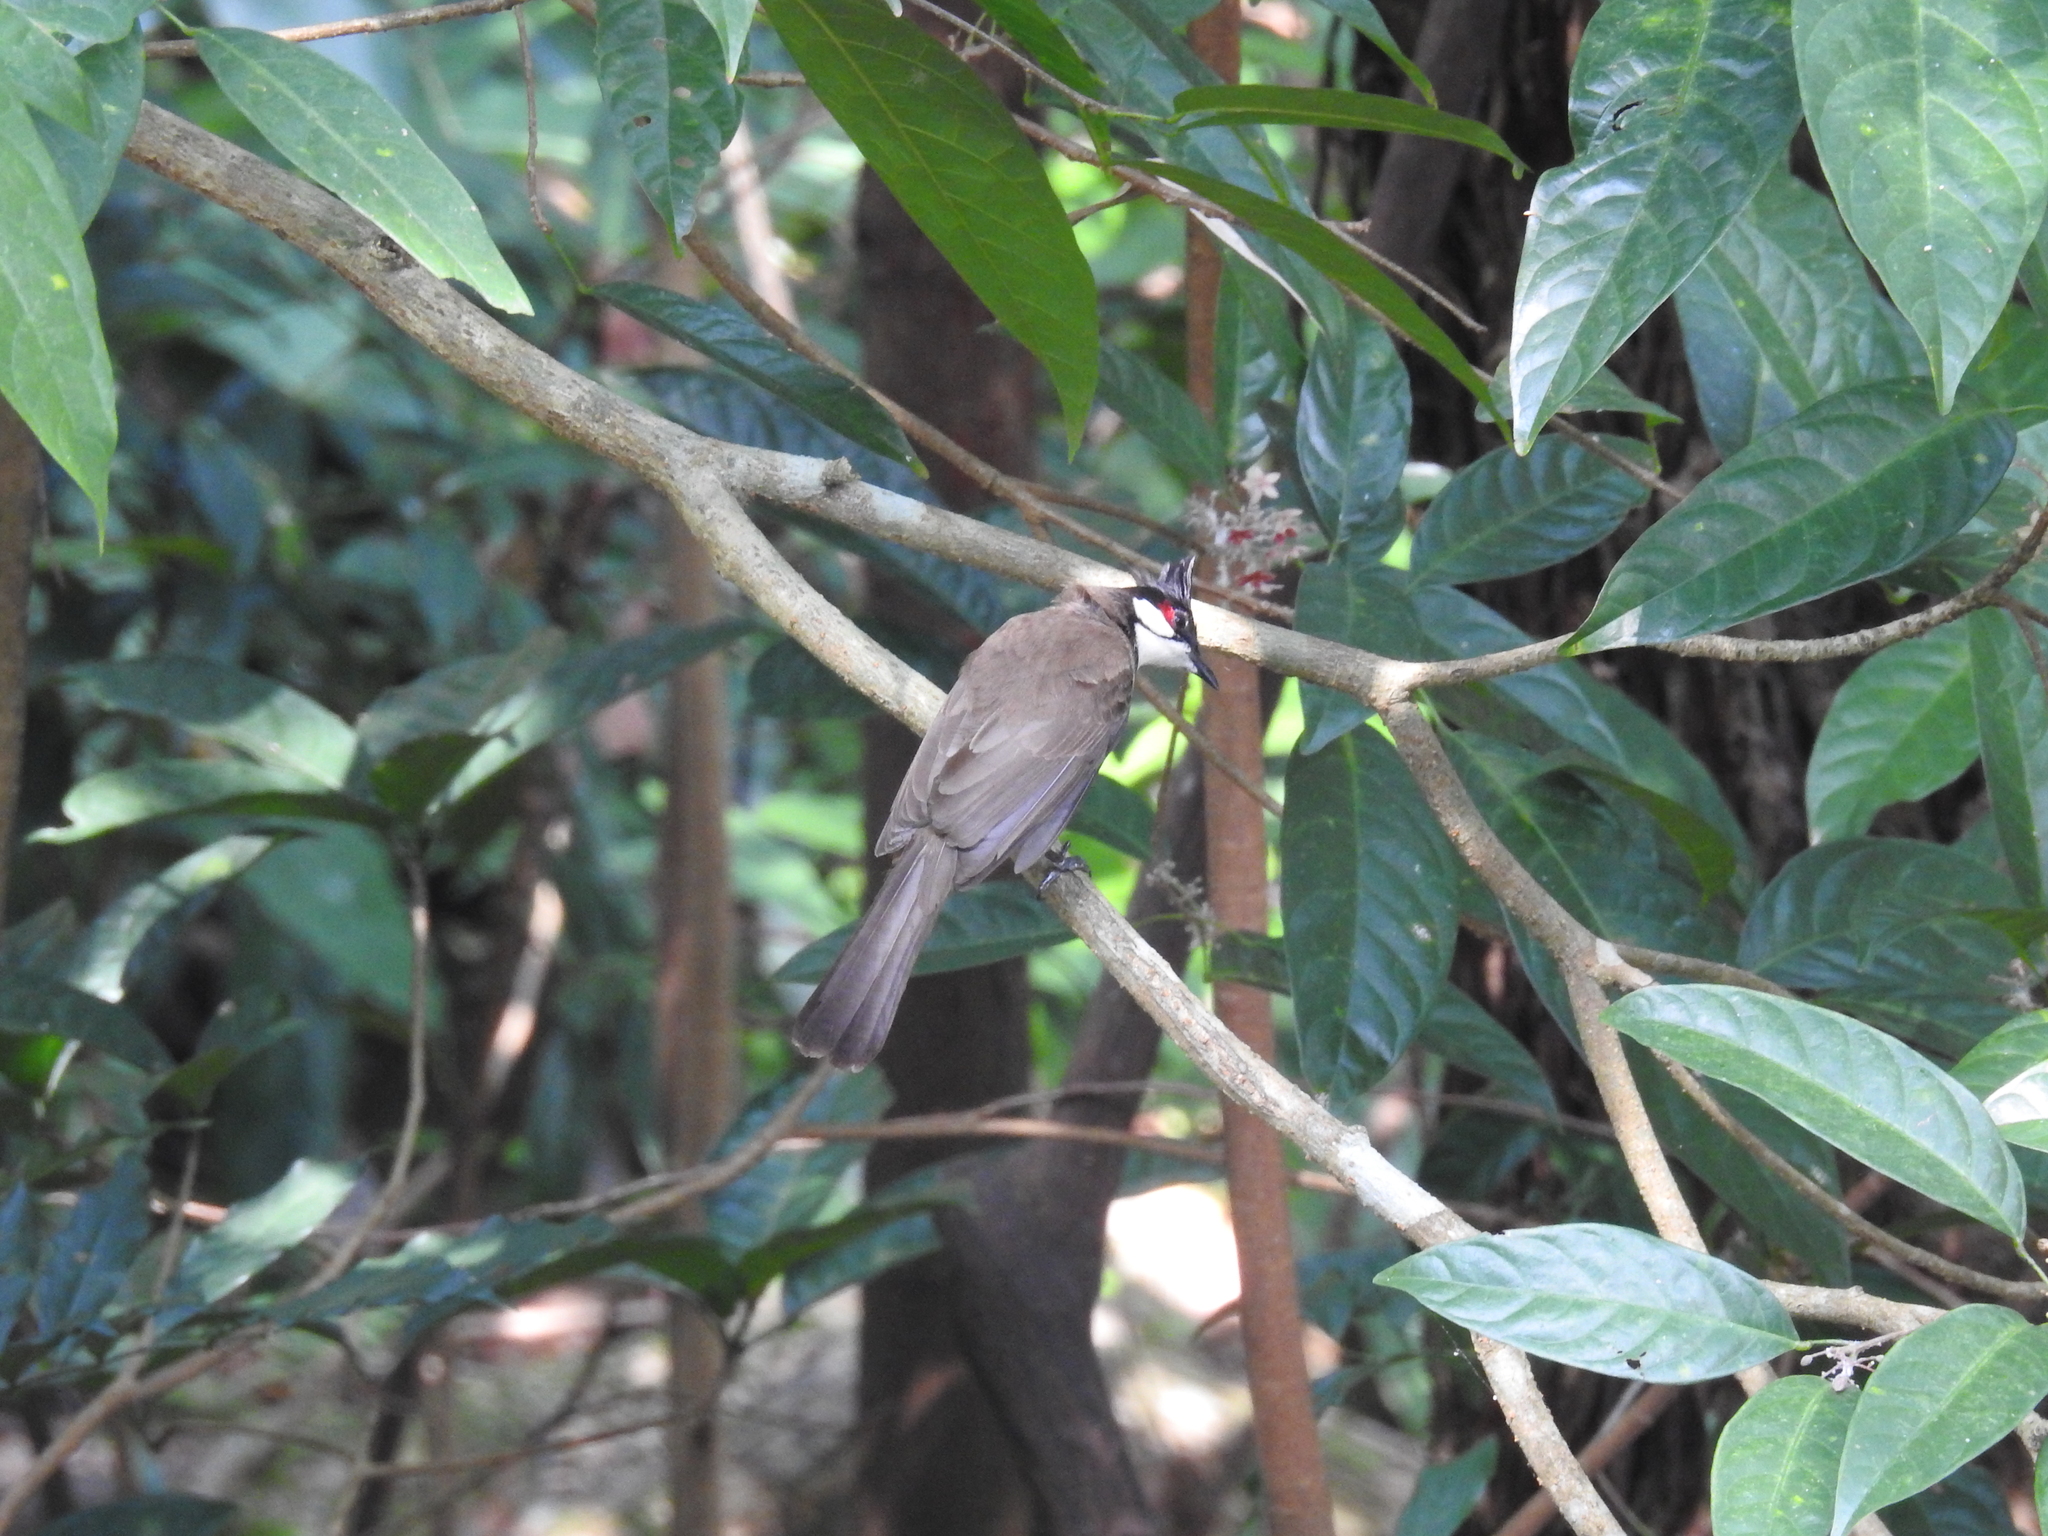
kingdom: Animalia
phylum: Chordata
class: Aves
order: Passeriformes
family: Pycnonotidae
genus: Pycnonotus
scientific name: Pycnonotus jocosus
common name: Red-whiskered bulbul
